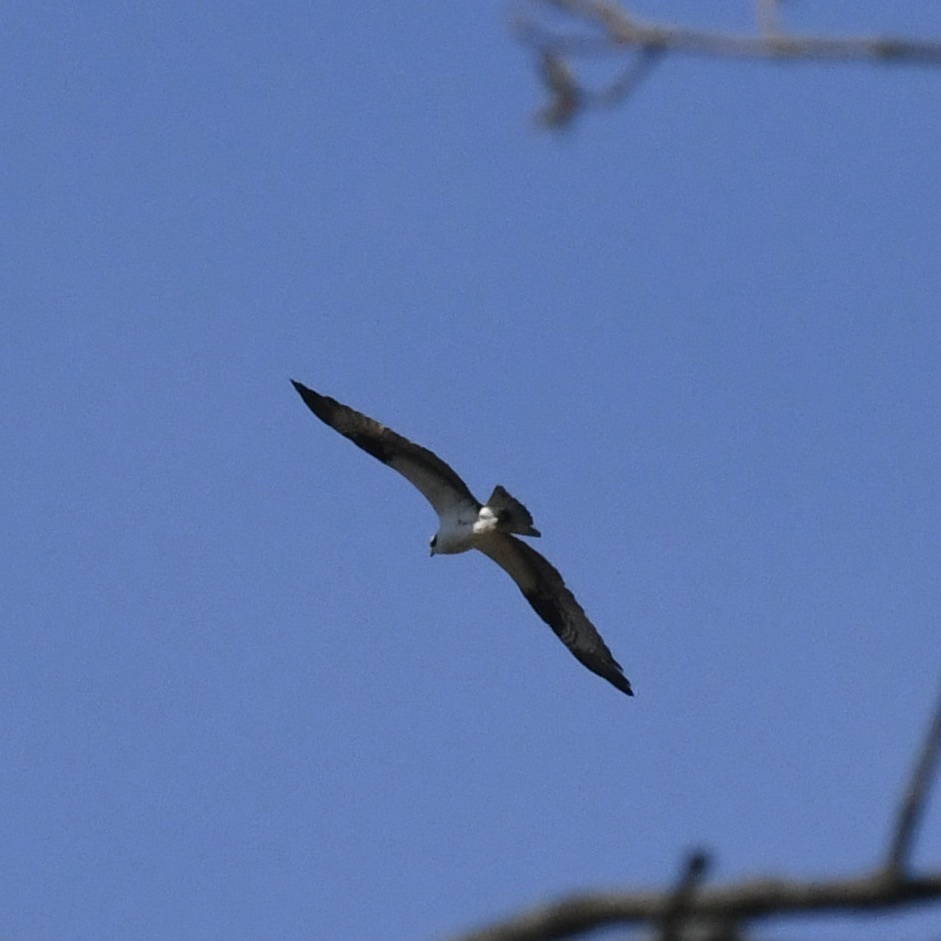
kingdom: Animalia
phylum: Chordata
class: Aves
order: Accipitriformes
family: Pandionidae
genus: Pandion
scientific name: Pandion haliaetus
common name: Osprey
